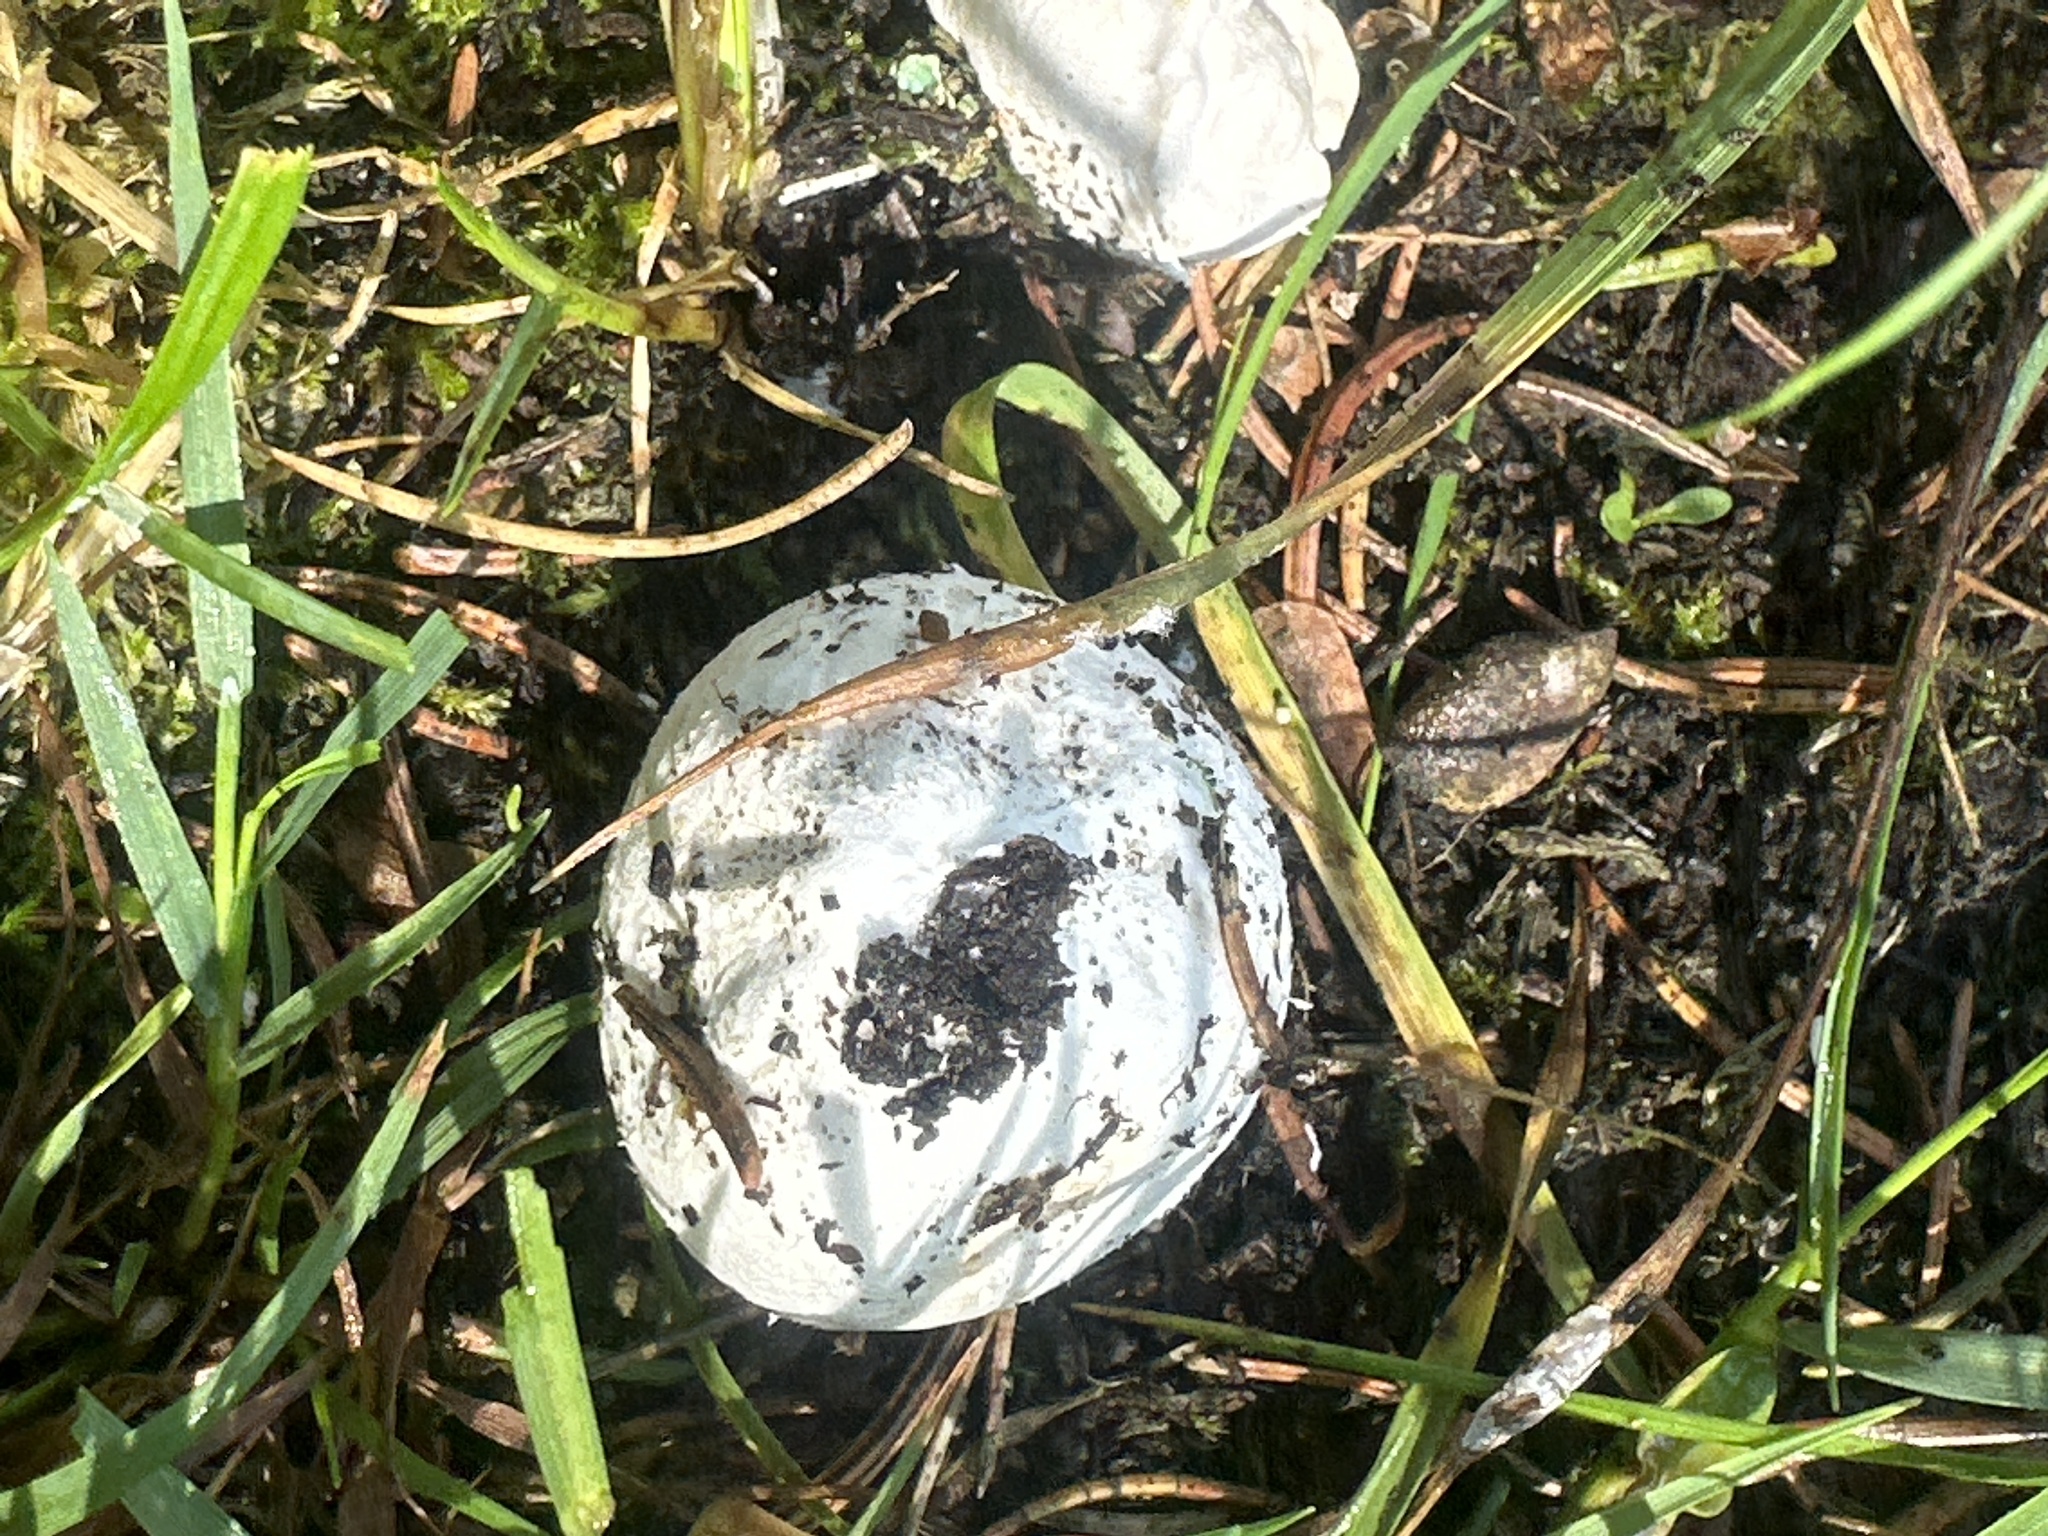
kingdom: Fungi
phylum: Basidiomycota
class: Agaricomycetes
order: Agaricales
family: Lycoperdaceae
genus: Lycoperdon
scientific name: Lycoperdon pratense
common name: Meadow puffball
